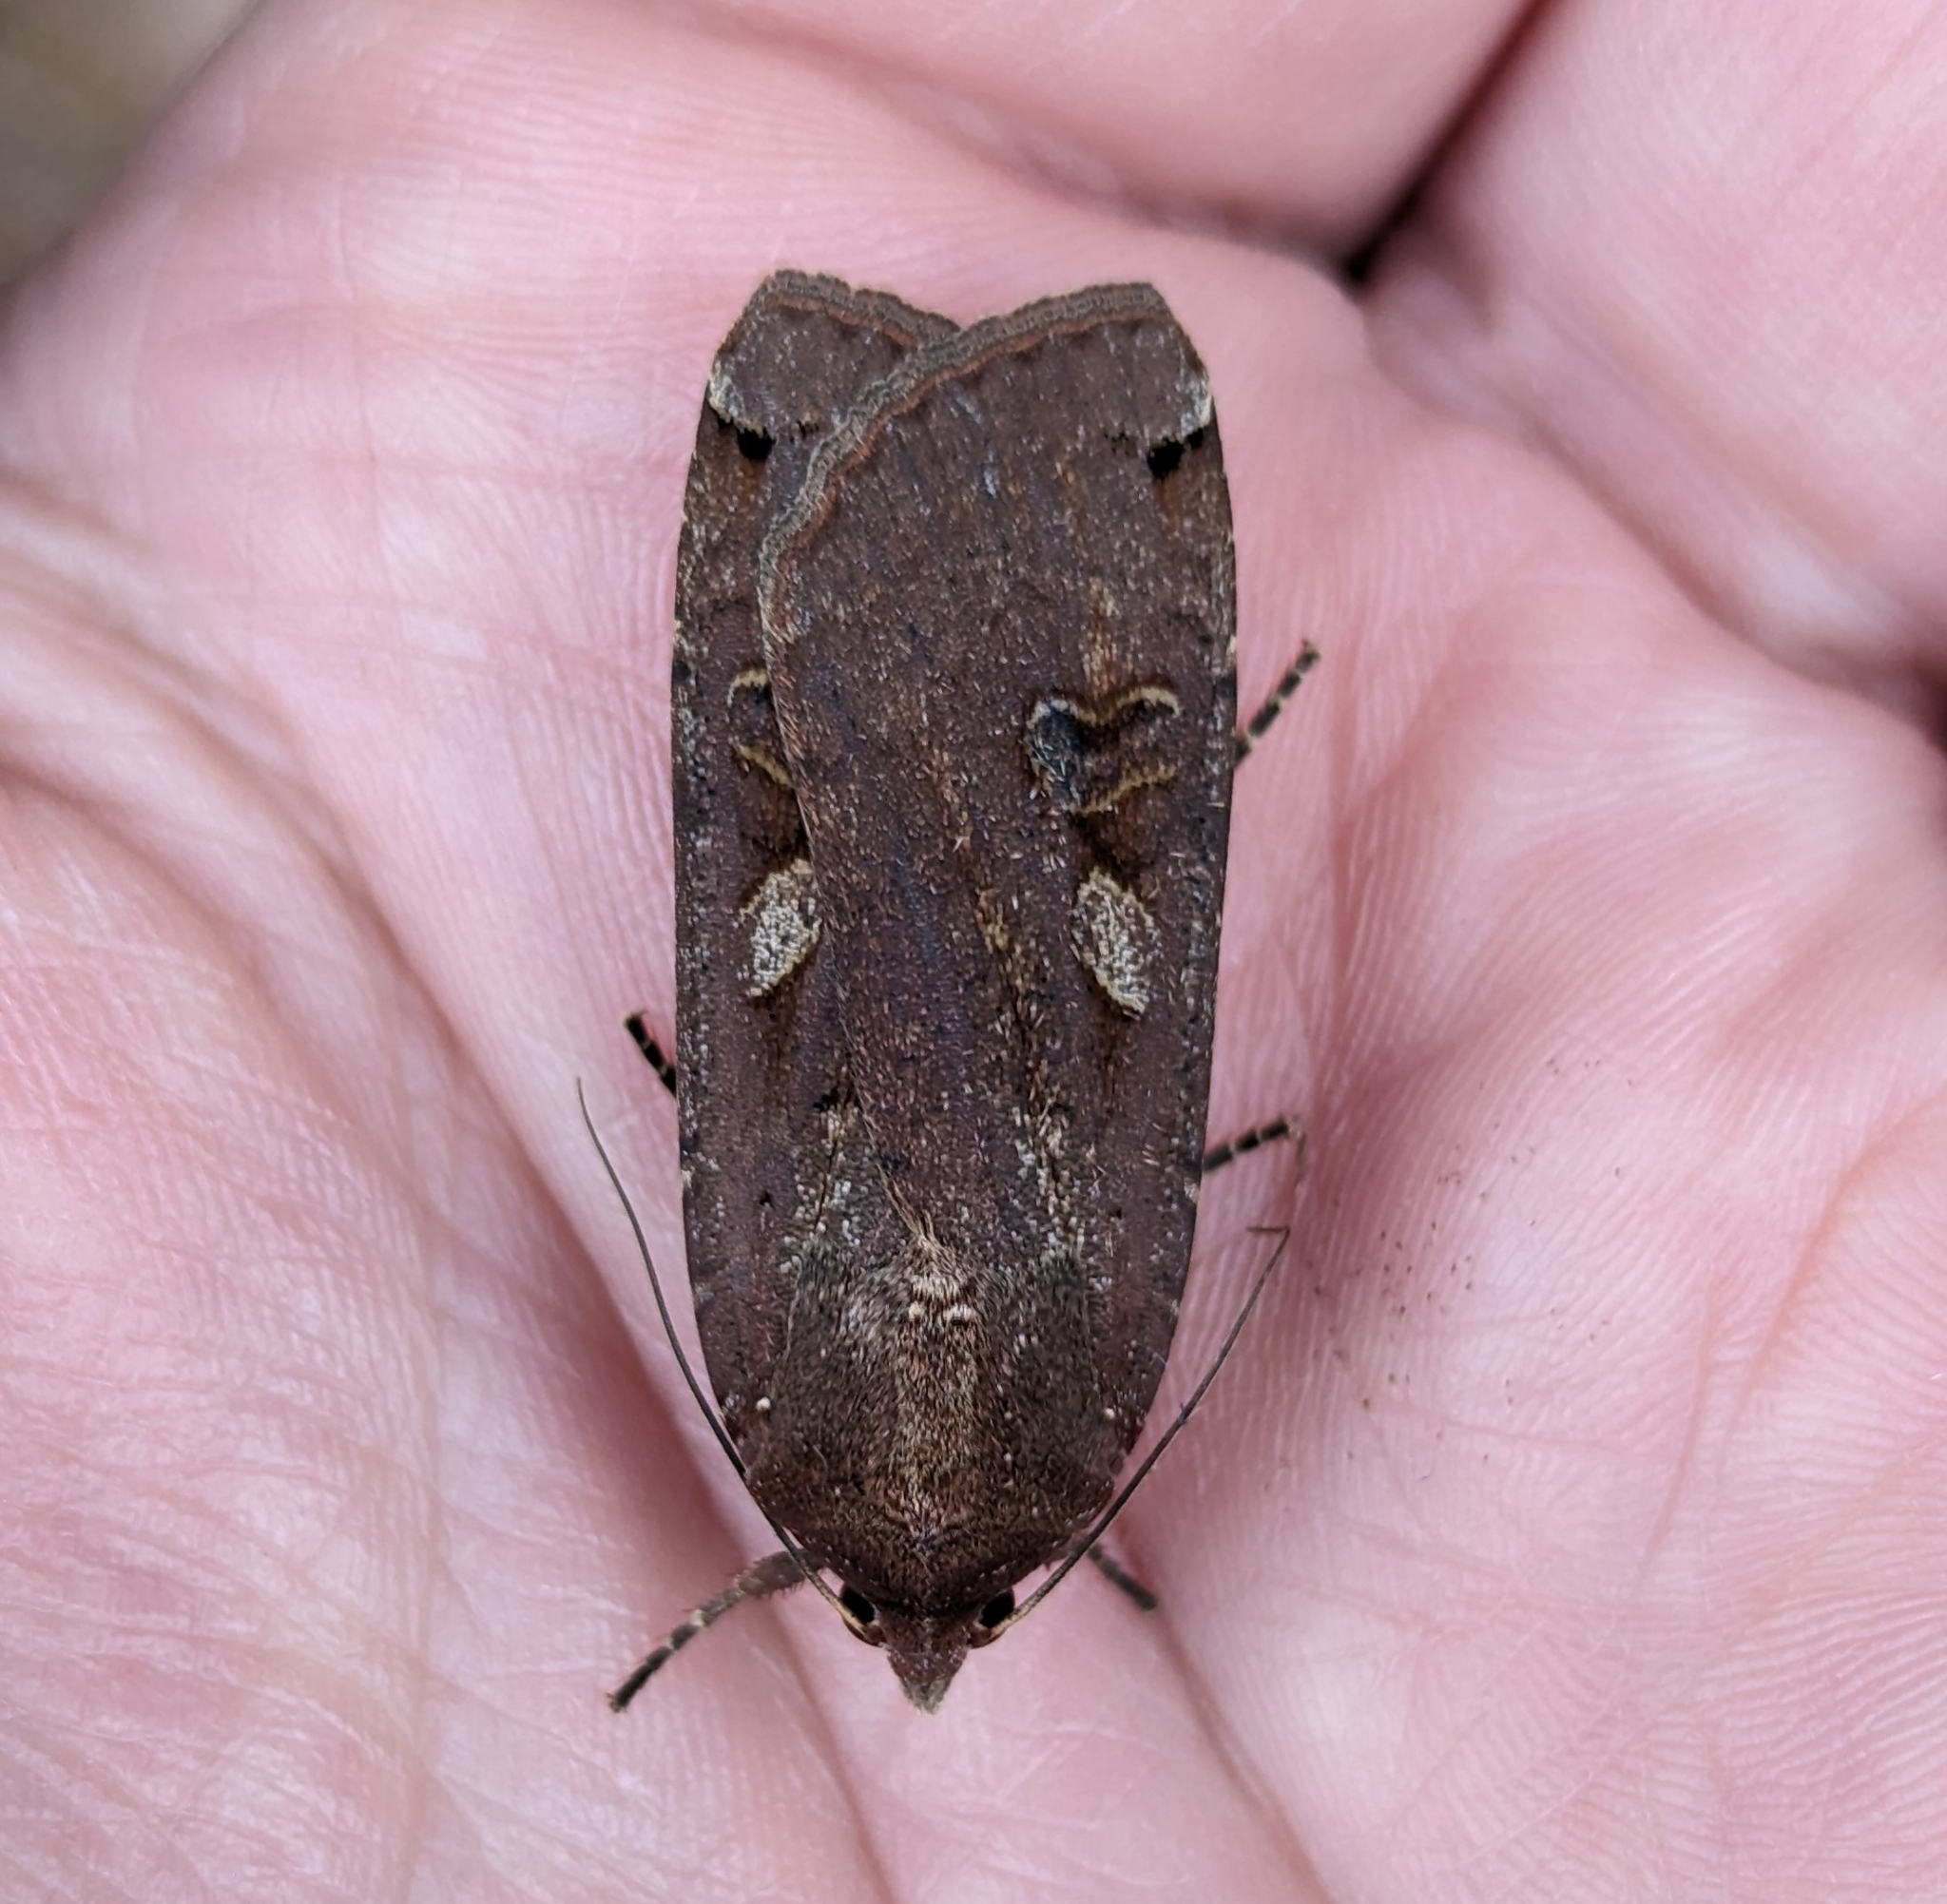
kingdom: Animalia
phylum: Arthropoda
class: Insecta
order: Lepidoptera
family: Noctuidae
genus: Noctua
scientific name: Noctua pronuba
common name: Large yellow underwing
